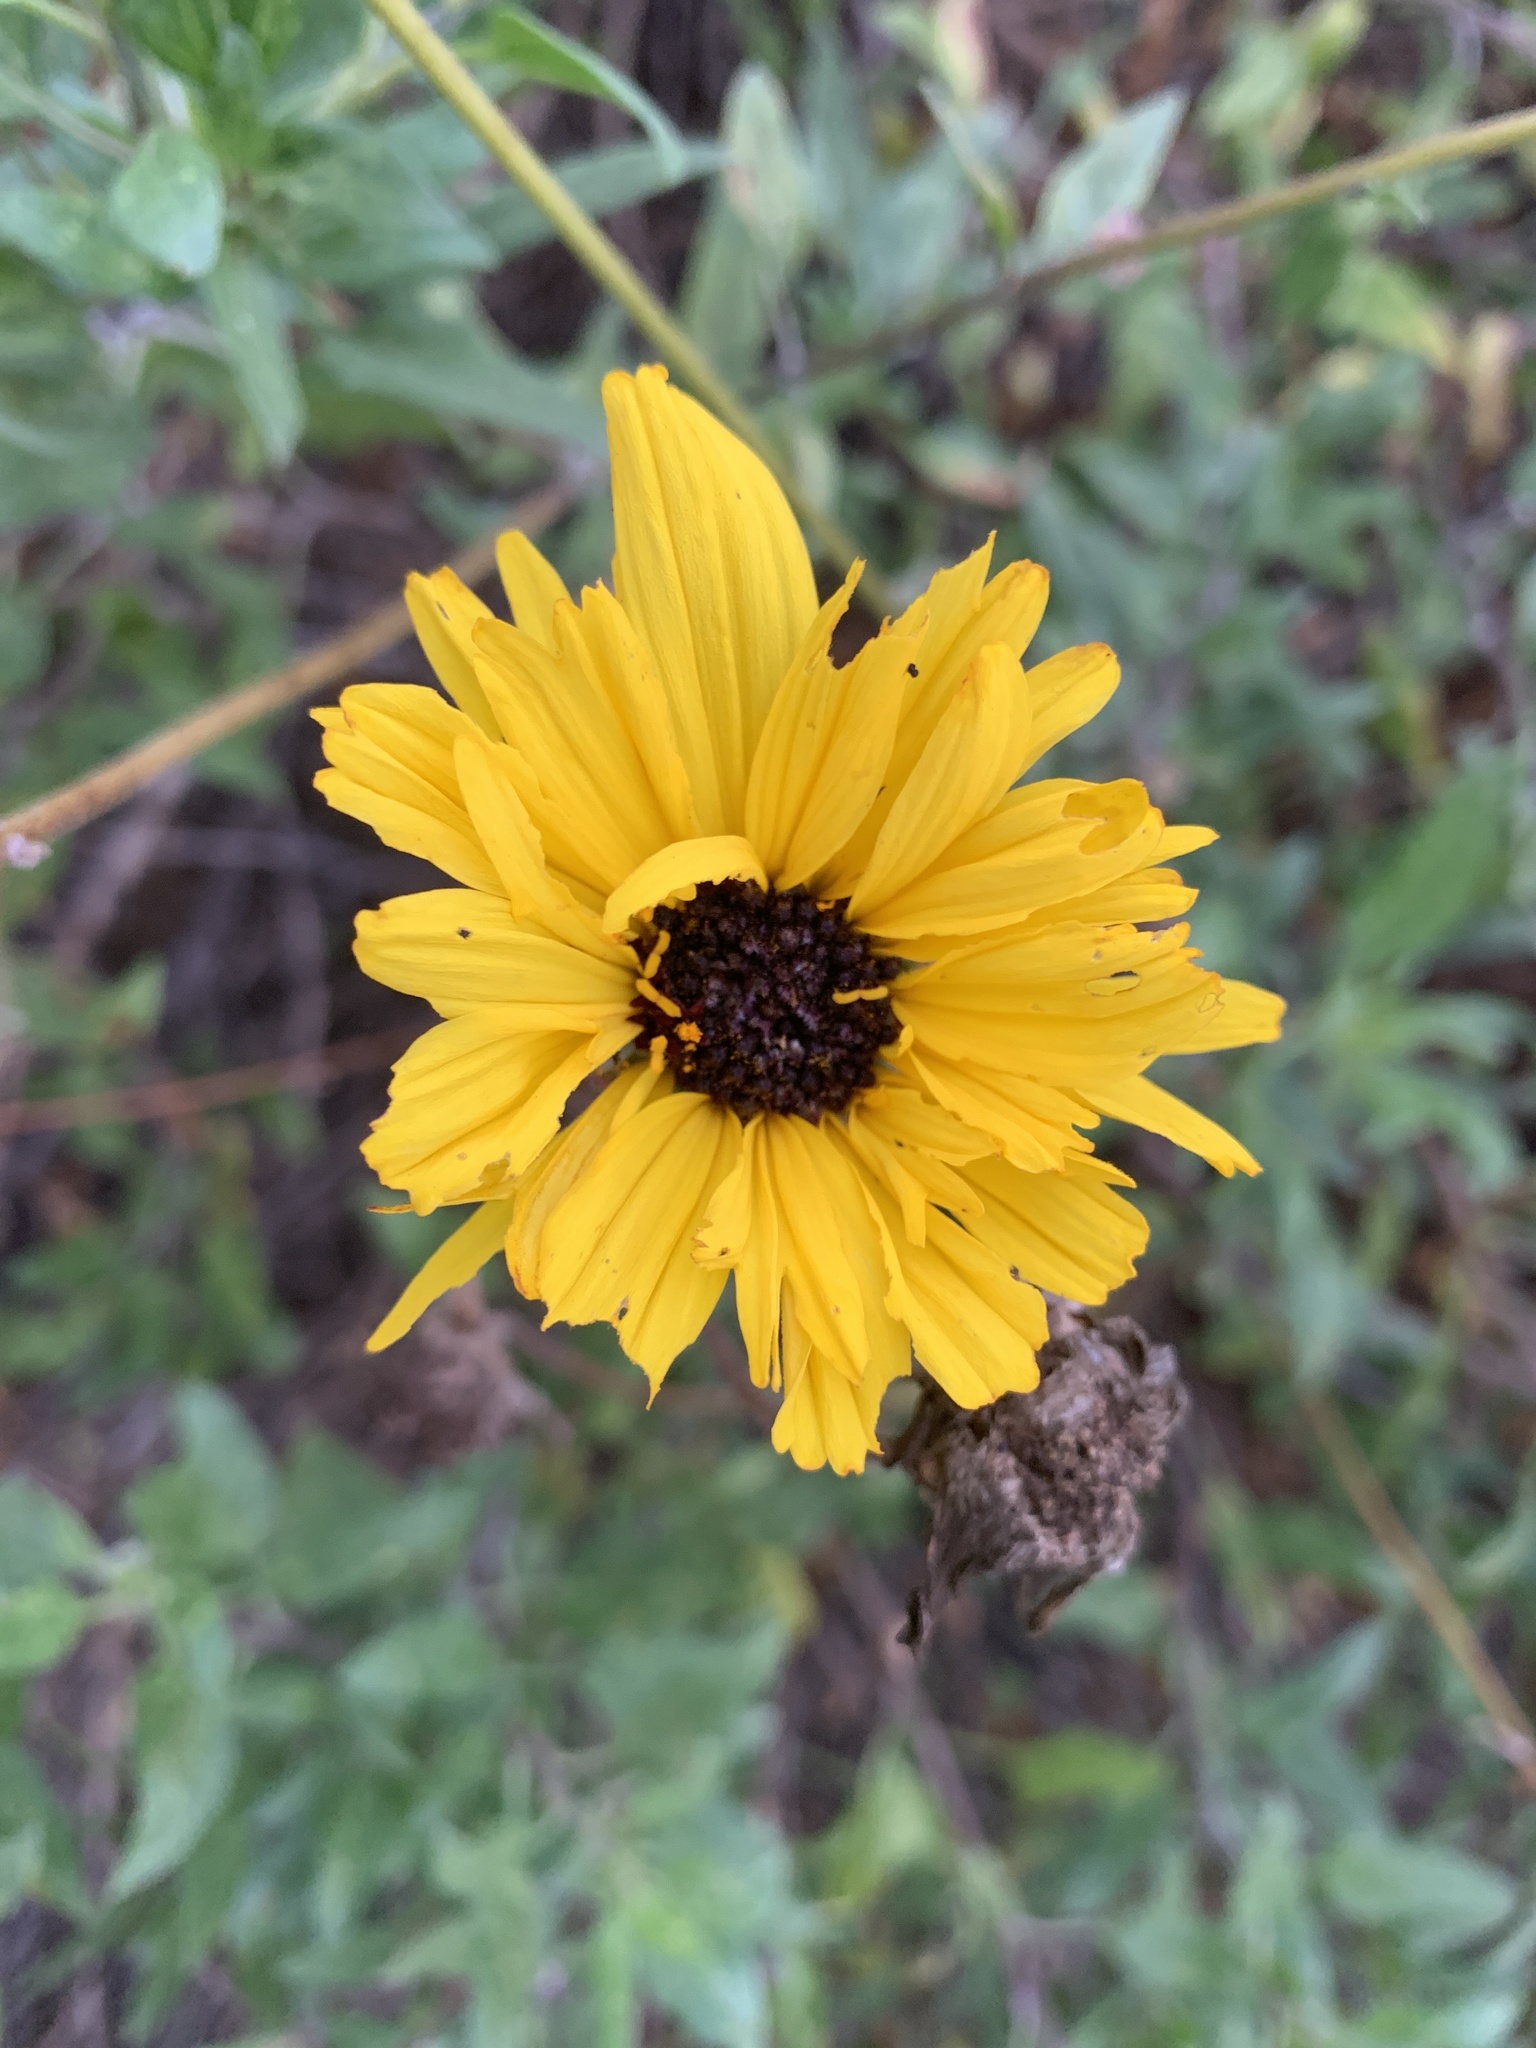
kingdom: Plantae
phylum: Tracheophyta
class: Magnoliopsida
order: Asterales
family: Asteraceae
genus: Encelia
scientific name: Encelia californica
